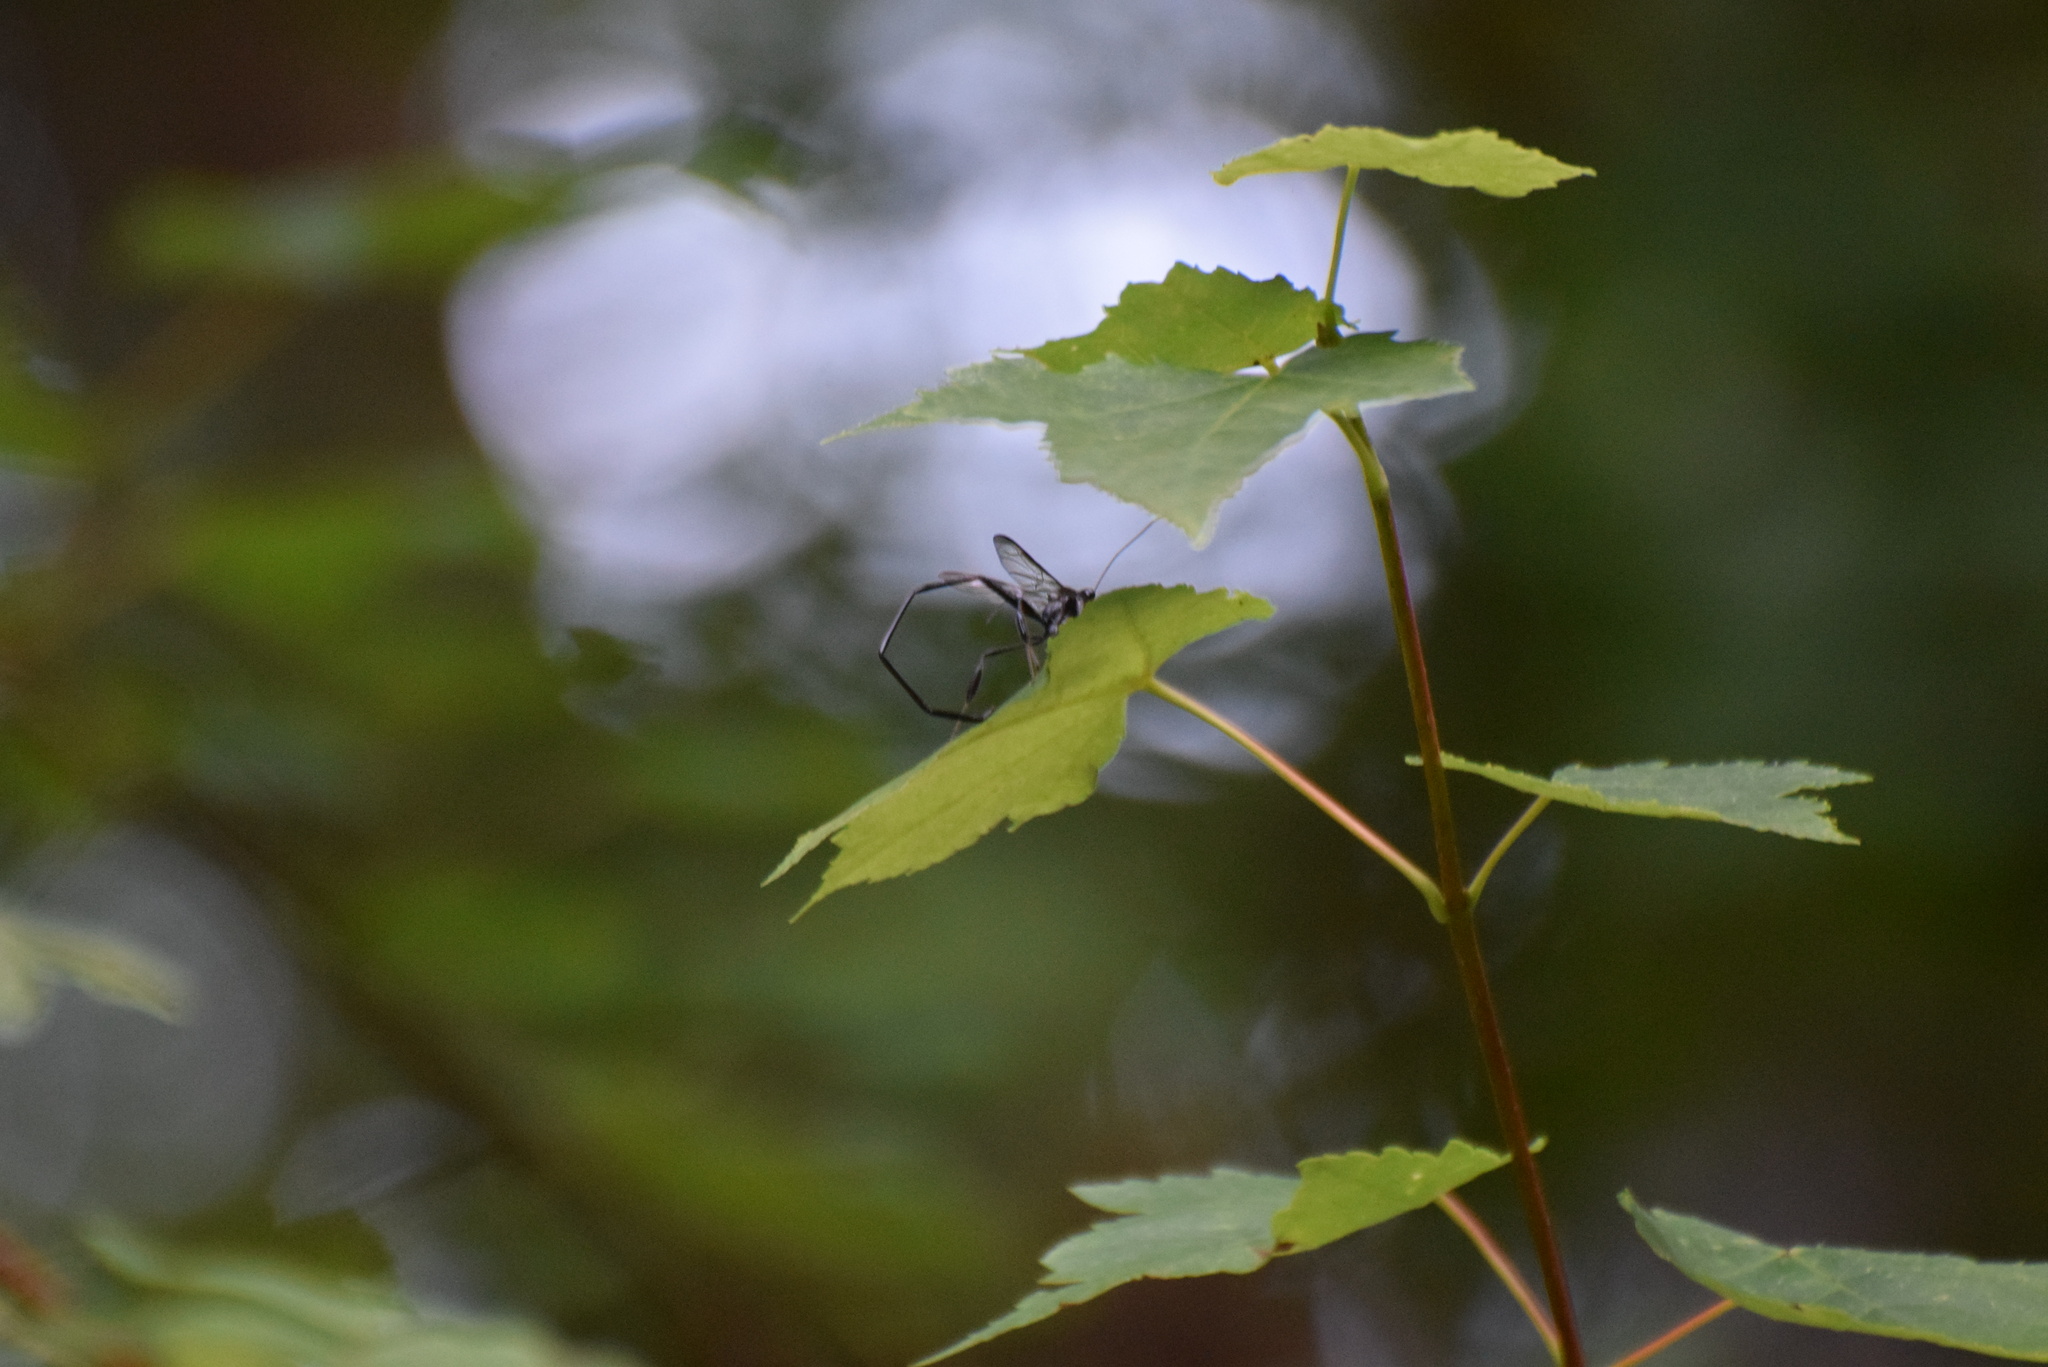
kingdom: Animalia
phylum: Arthropoda
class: Insecta
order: Hymenoptera
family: Pelecinidae
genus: Pelecinus
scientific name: Pelecinus polyturator
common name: American pelecinid wasp
